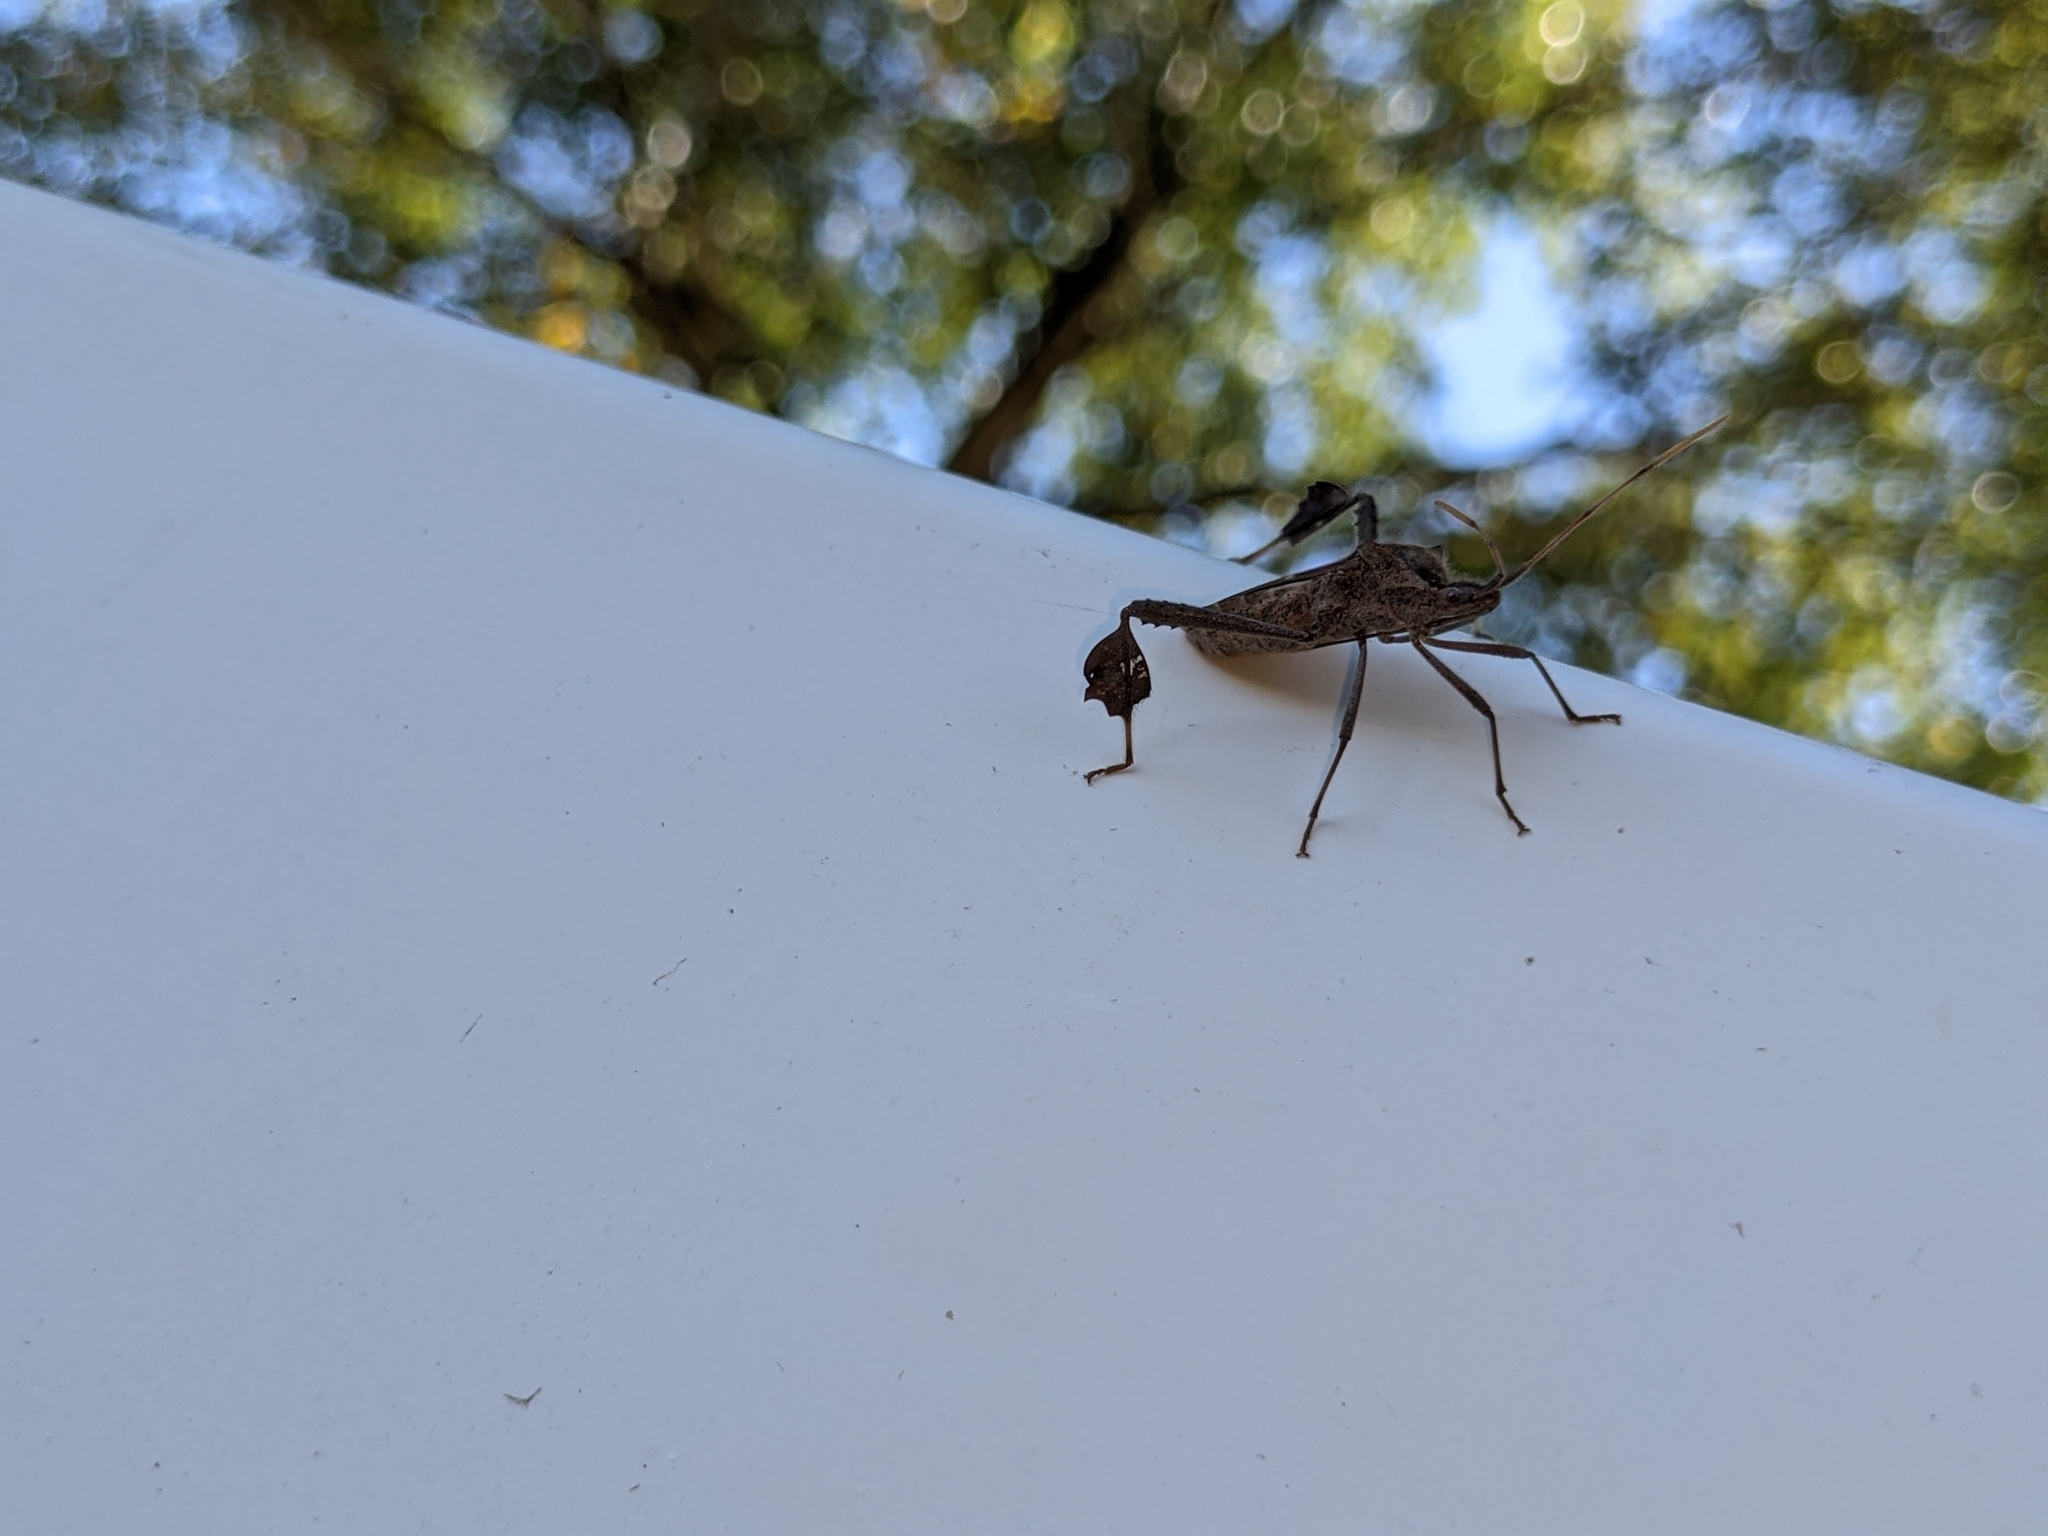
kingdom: Animalia
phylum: Arthropoda
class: Insecta
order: Hemiptera
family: Coreidae
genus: Leptoglossus
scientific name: Leptoglossus zonatus
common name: Large-legged bug
